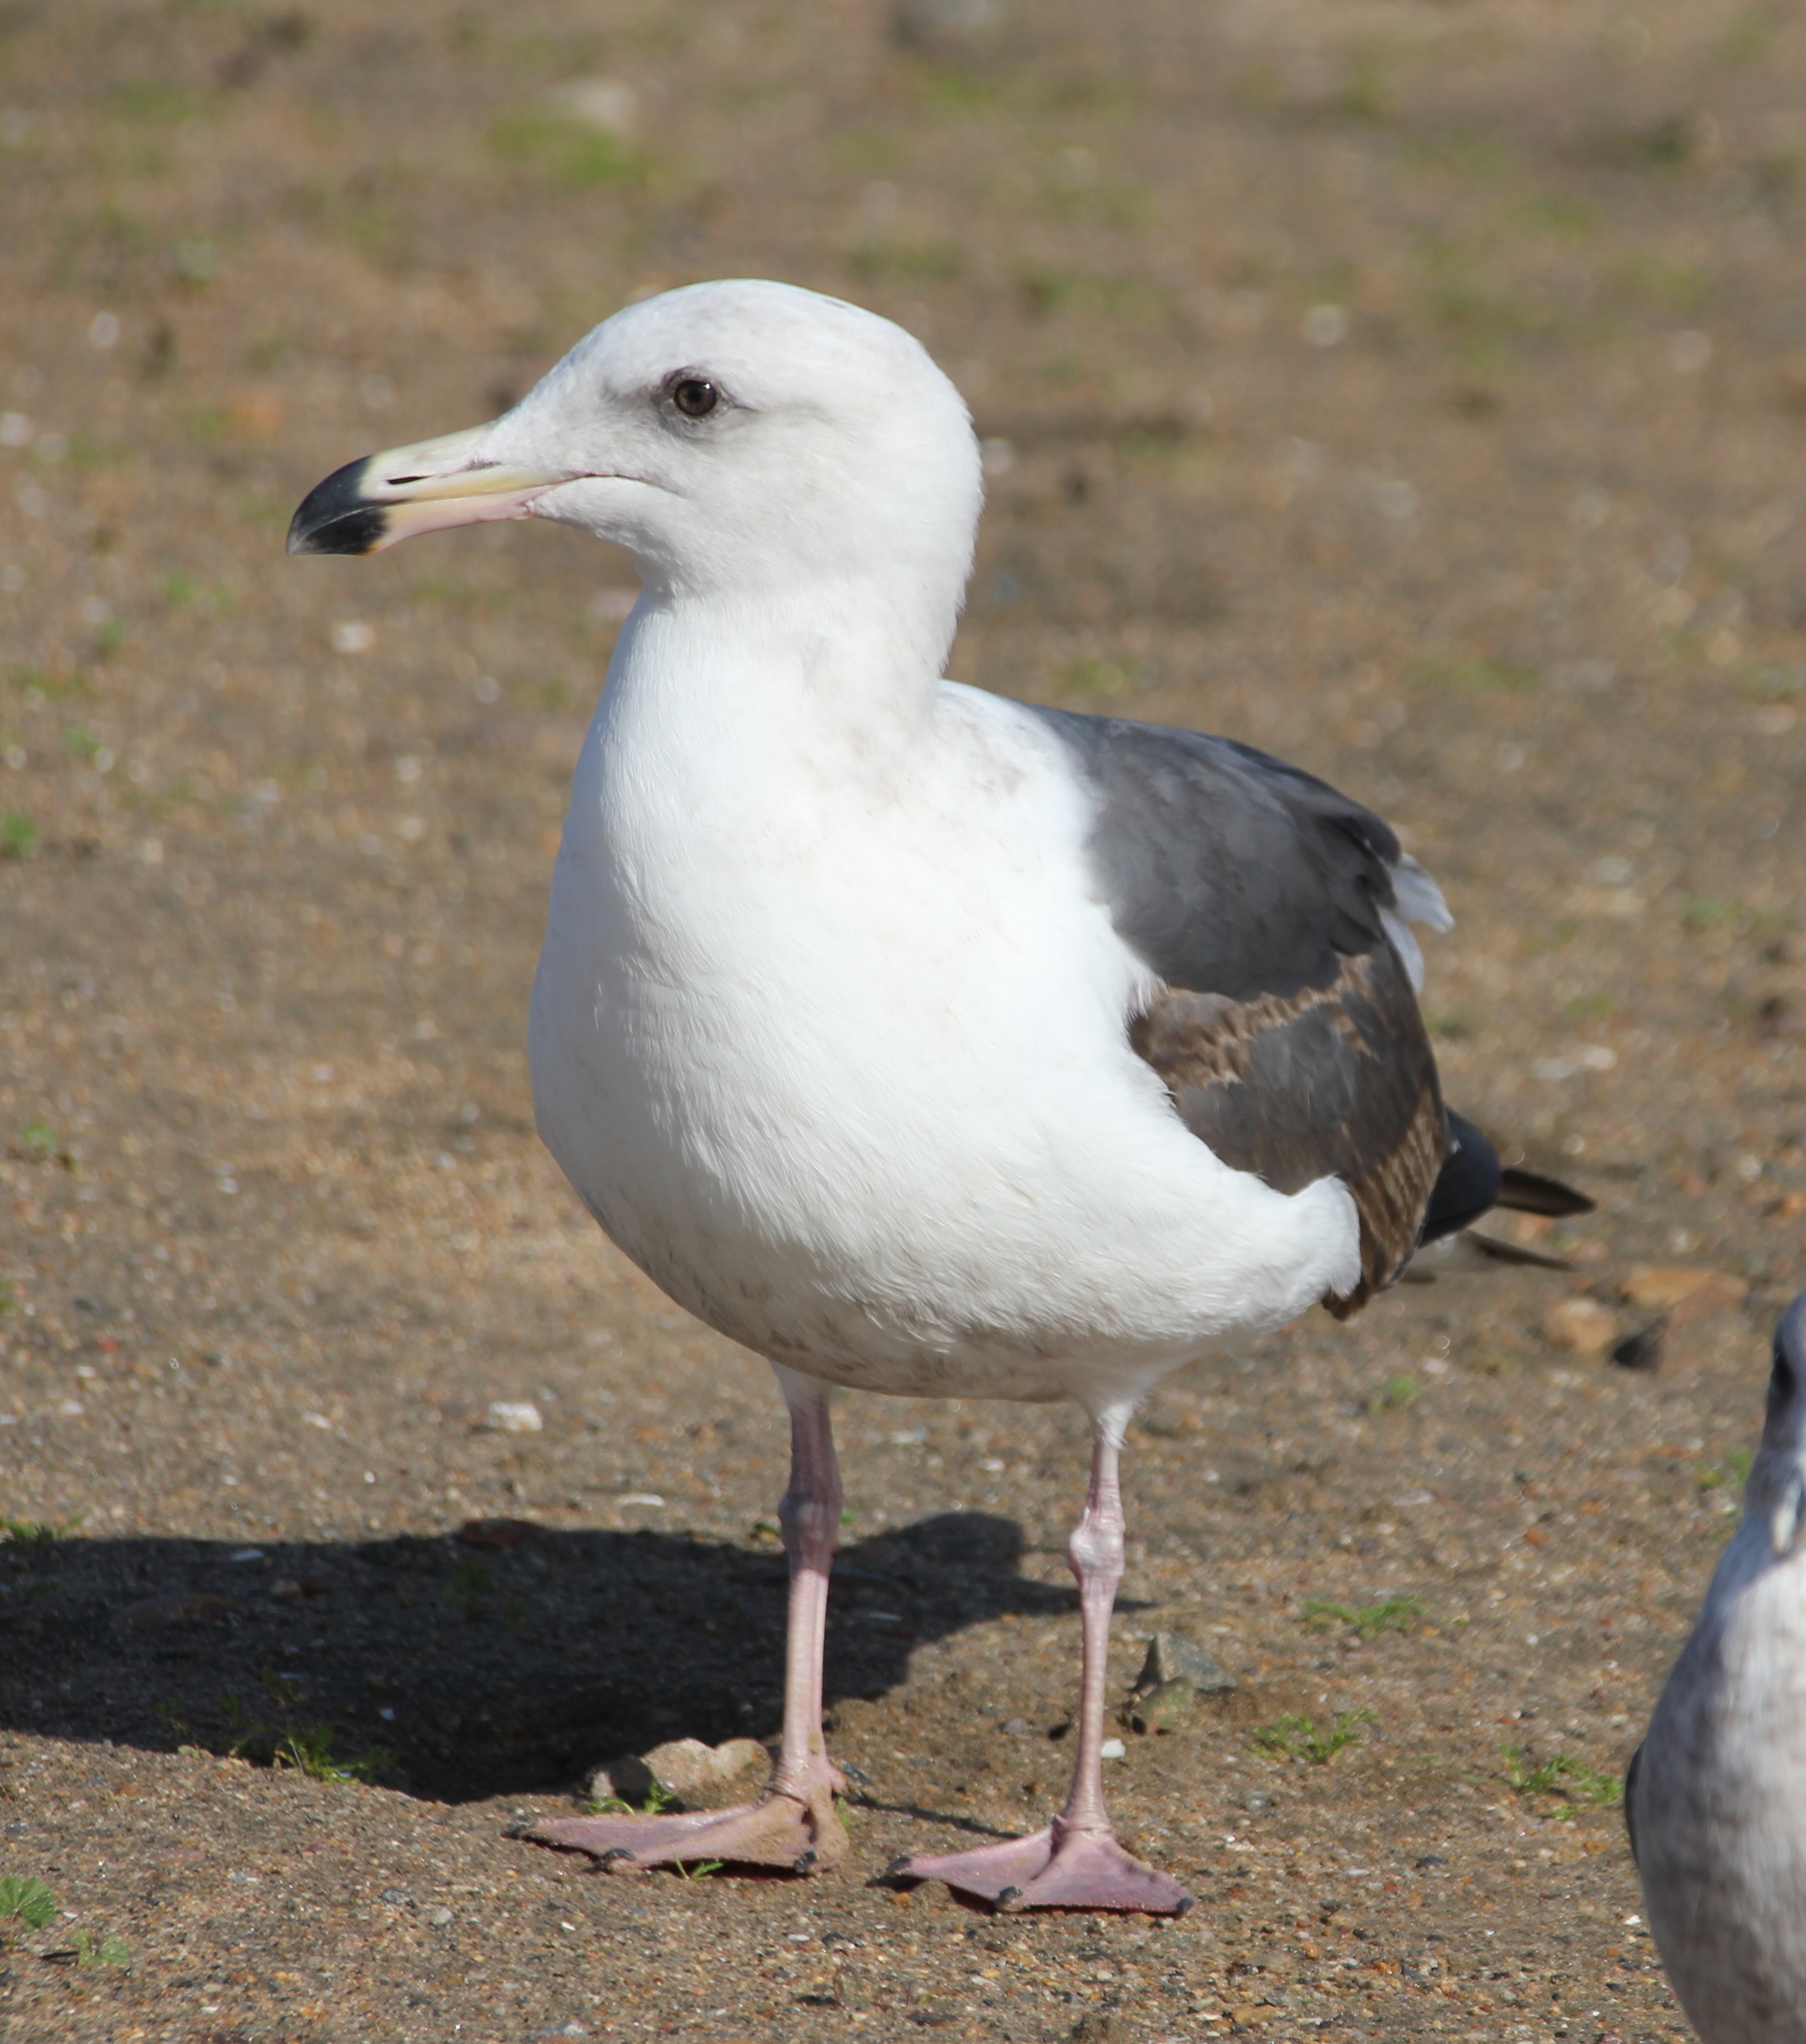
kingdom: Animalia
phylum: Chordata
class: Aves
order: Charadriiformes
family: Laridae
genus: Larus
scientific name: Larus occidentalis
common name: Western gull
